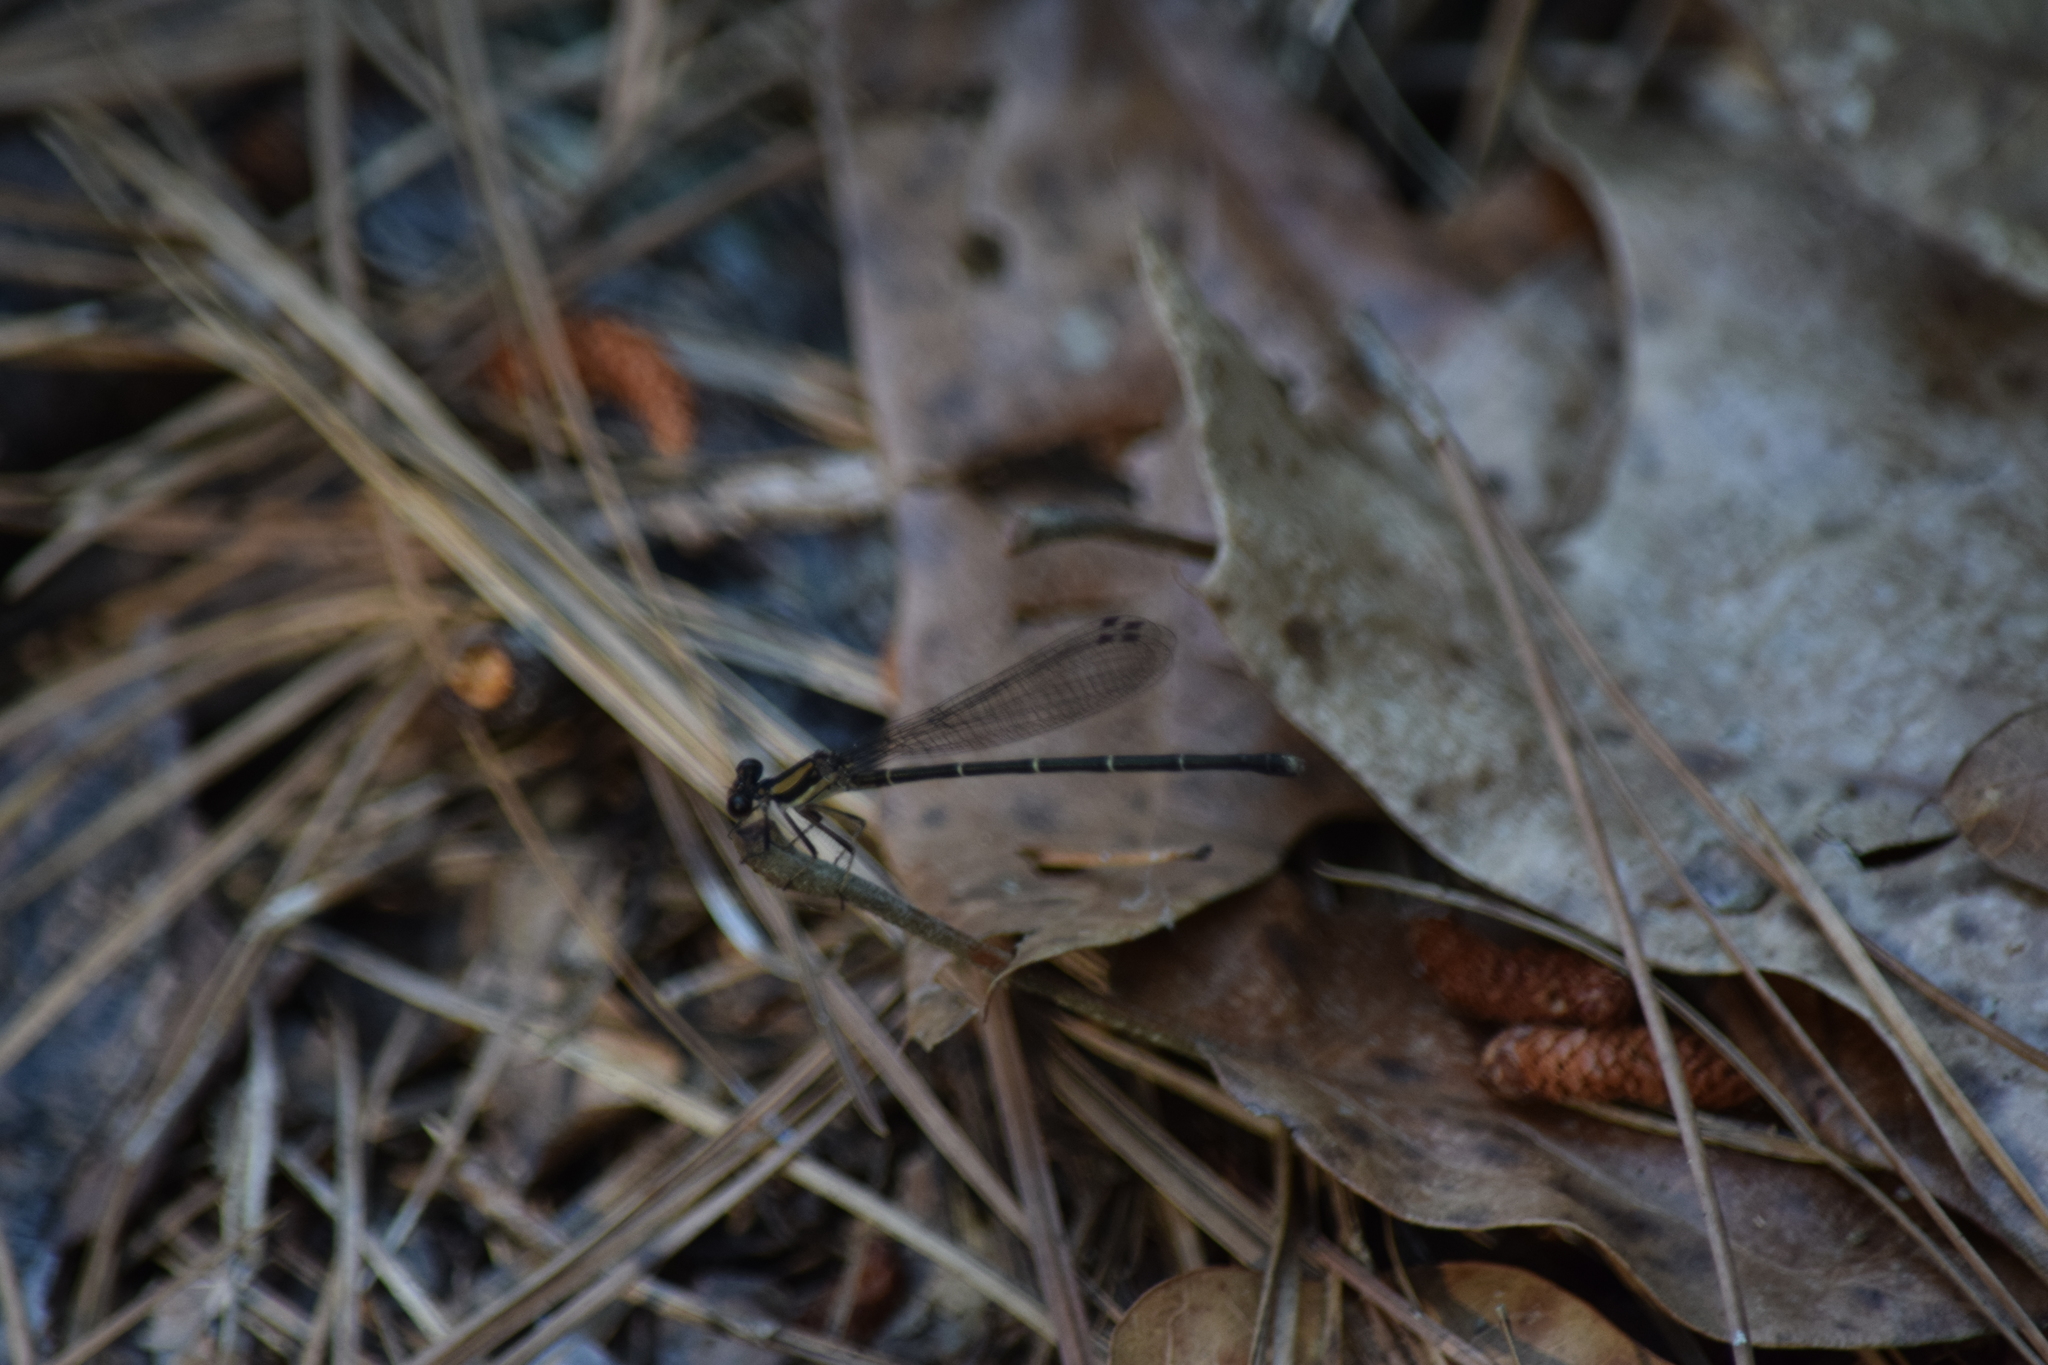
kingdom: Animalia
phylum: Arthropoda
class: Insecta
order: Odonata
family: Coenagrionidae
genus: Argia
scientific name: Argia tibialis
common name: Blue-tipped dancer
